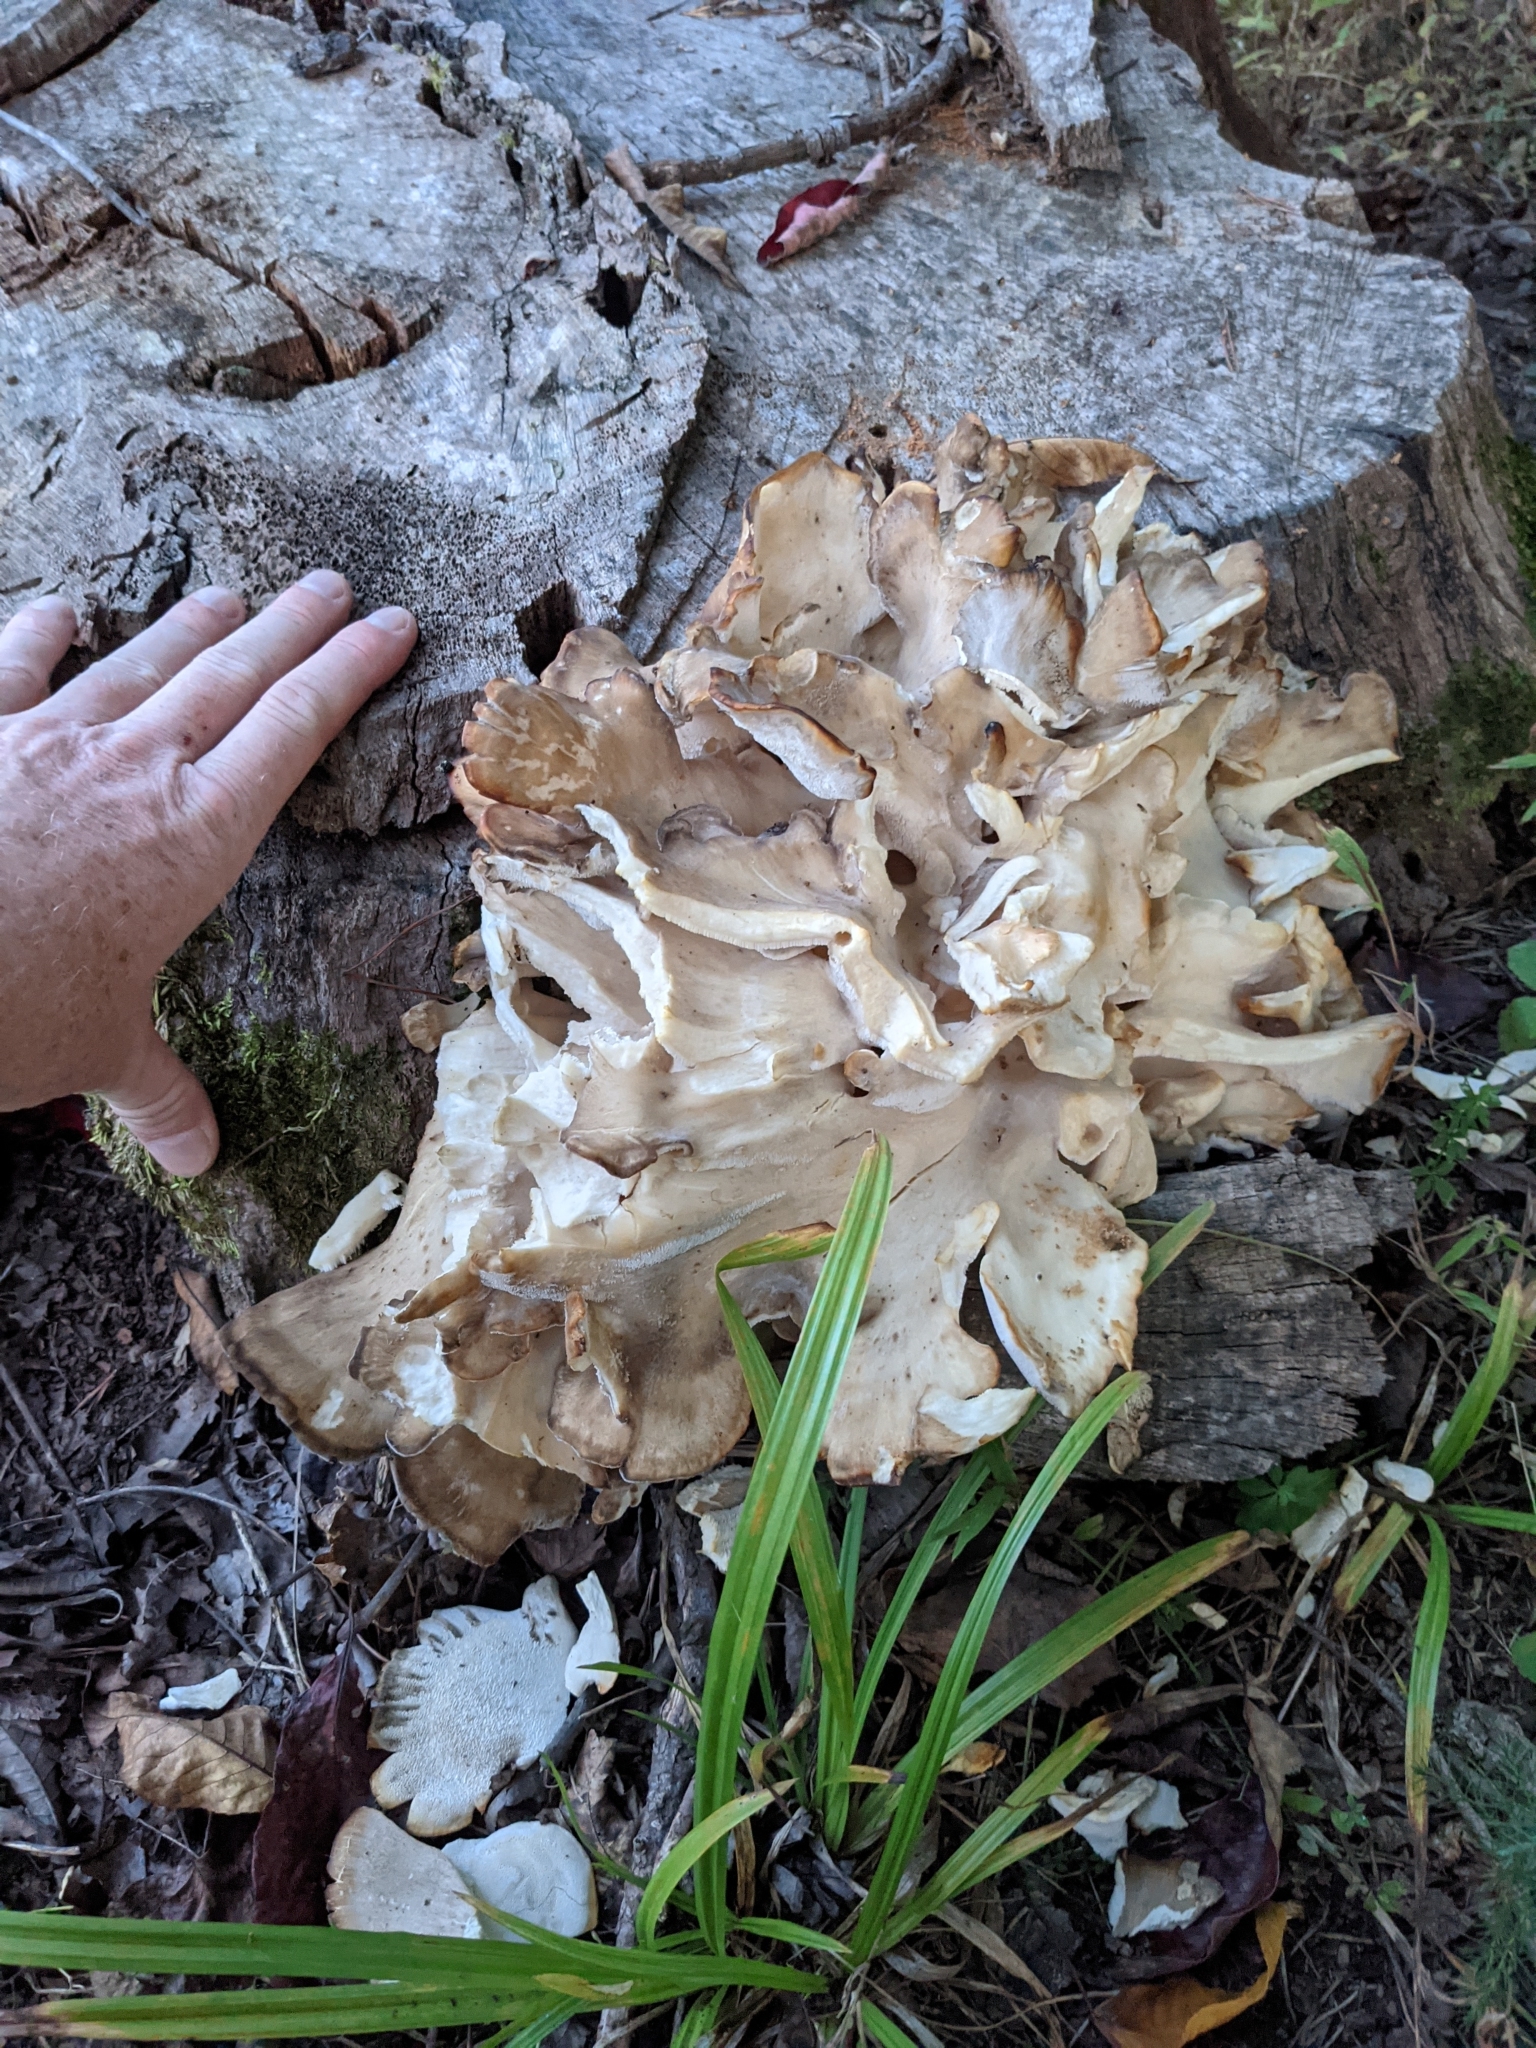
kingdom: Fungi
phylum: Basidiomycota
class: Agaricomycetes
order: Polyporales
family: Grifolaceae
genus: Grifola
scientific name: Grifola frondosa
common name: Hen of the woods
